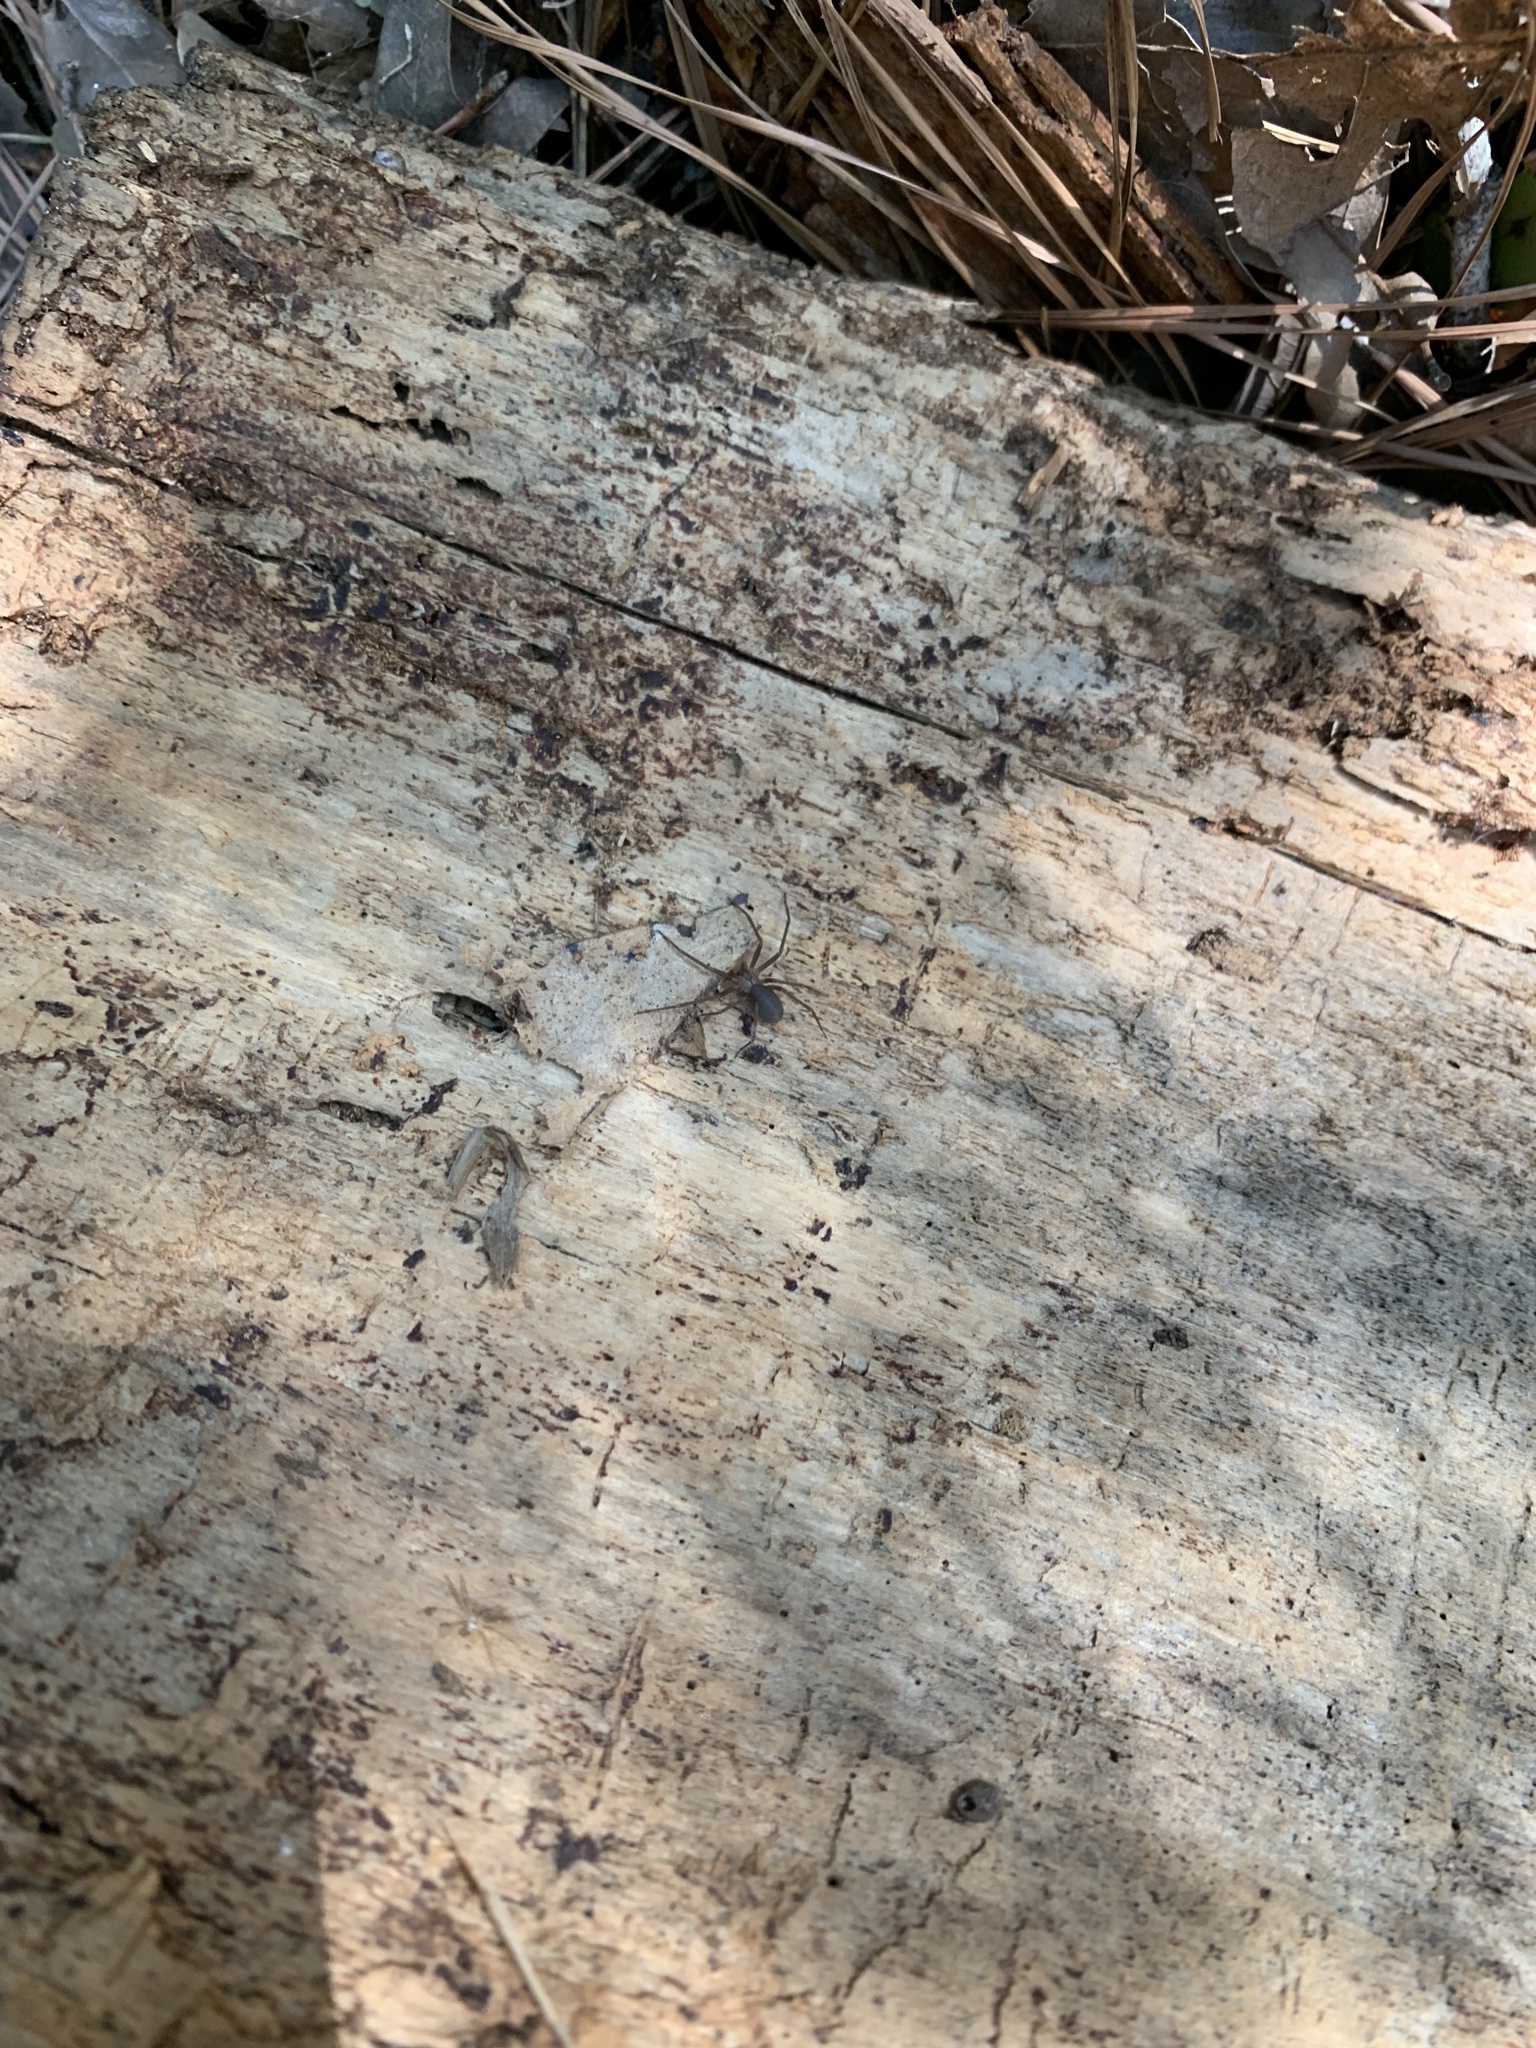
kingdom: Animalia
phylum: Arthropoda
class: Arachnida
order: Araneae
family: Sicariidae
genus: Loxosceles
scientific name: Loxosceles reclusa
